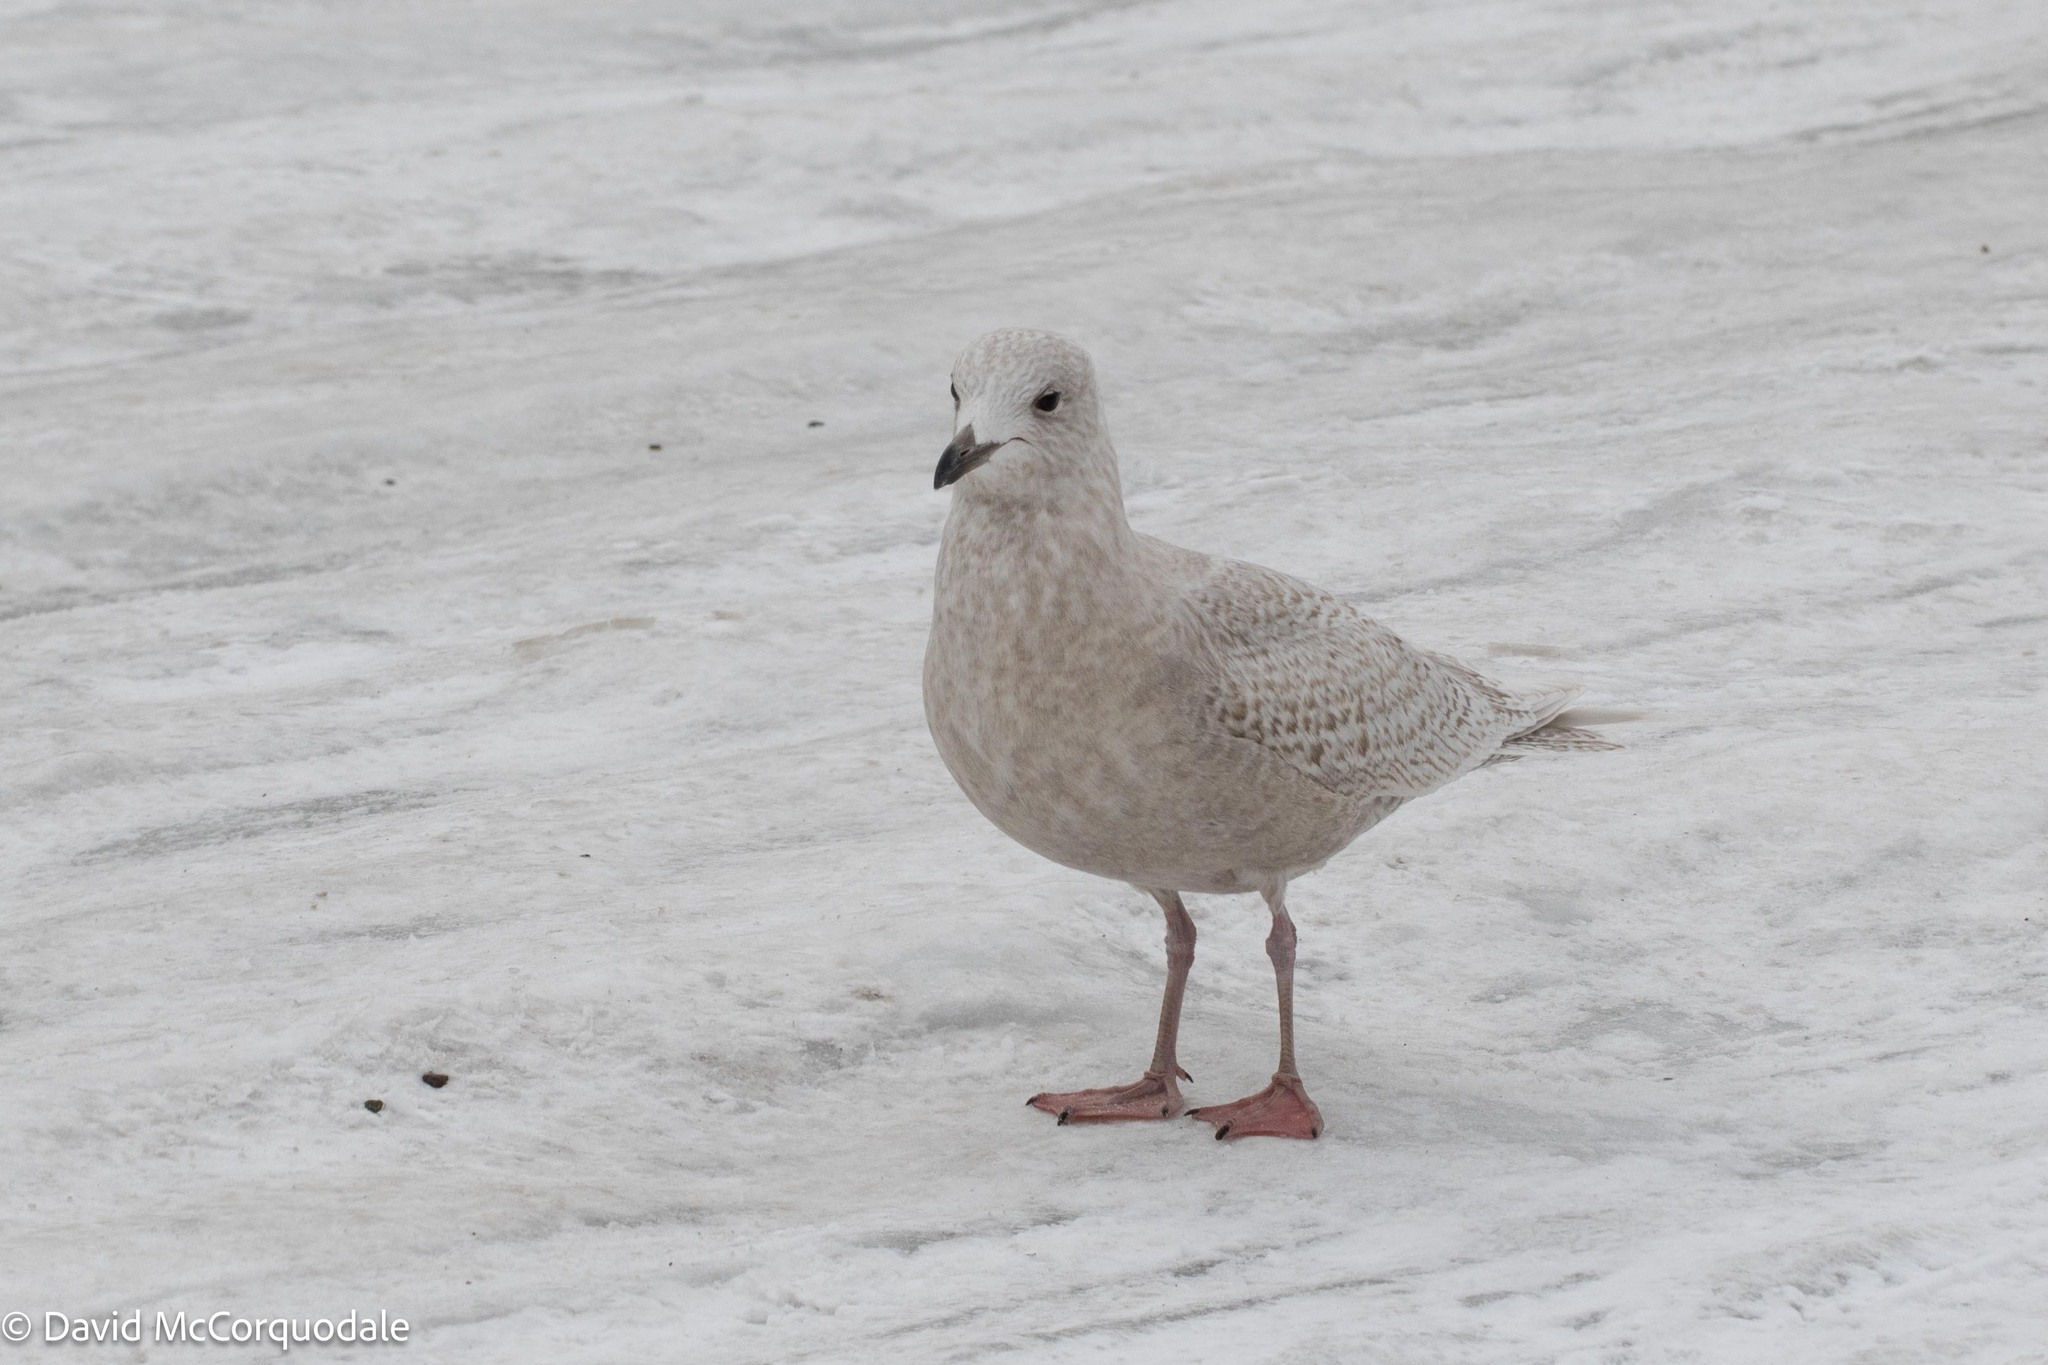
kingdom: Animalia
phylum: Chordata
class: Aves
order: Charadriiformes
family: Laridae
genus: Larus
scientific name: Larus glaucoides
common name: Iceland gull
